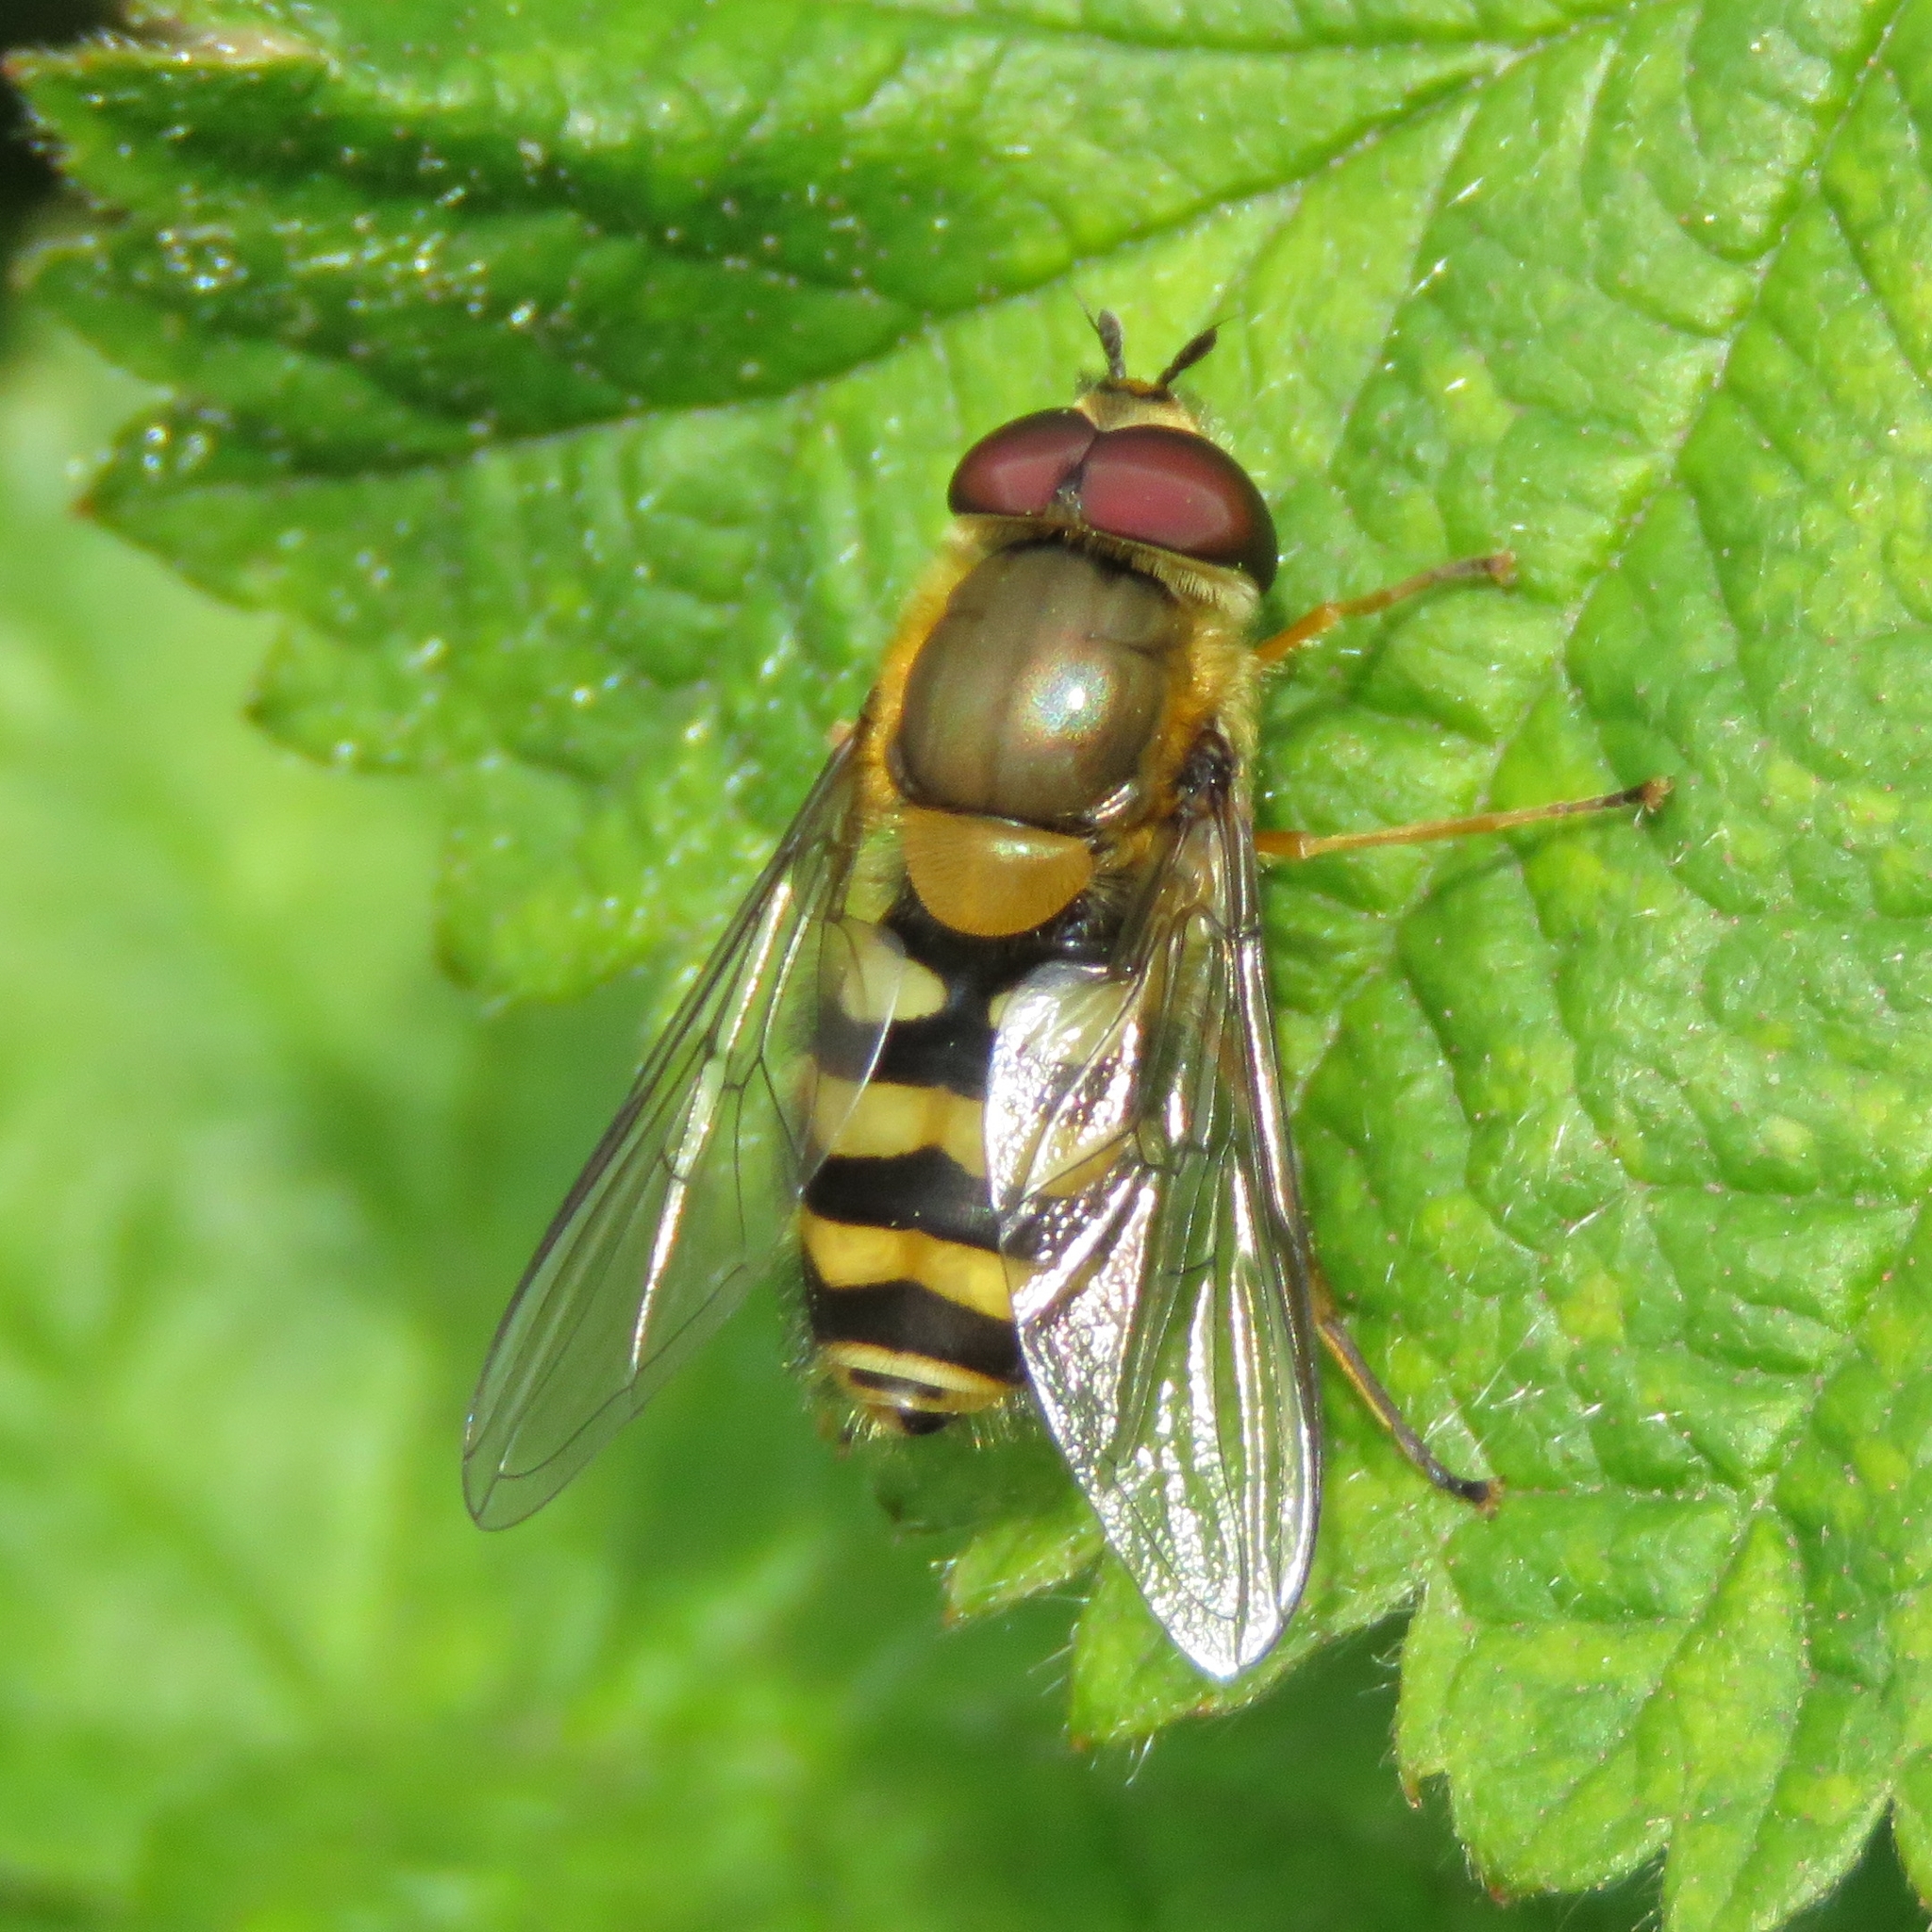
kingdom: Animalia
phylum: Arthropoda
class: Insecta
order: Diptera
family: Syrphidae
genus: Syrphus
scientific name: Syrphus
